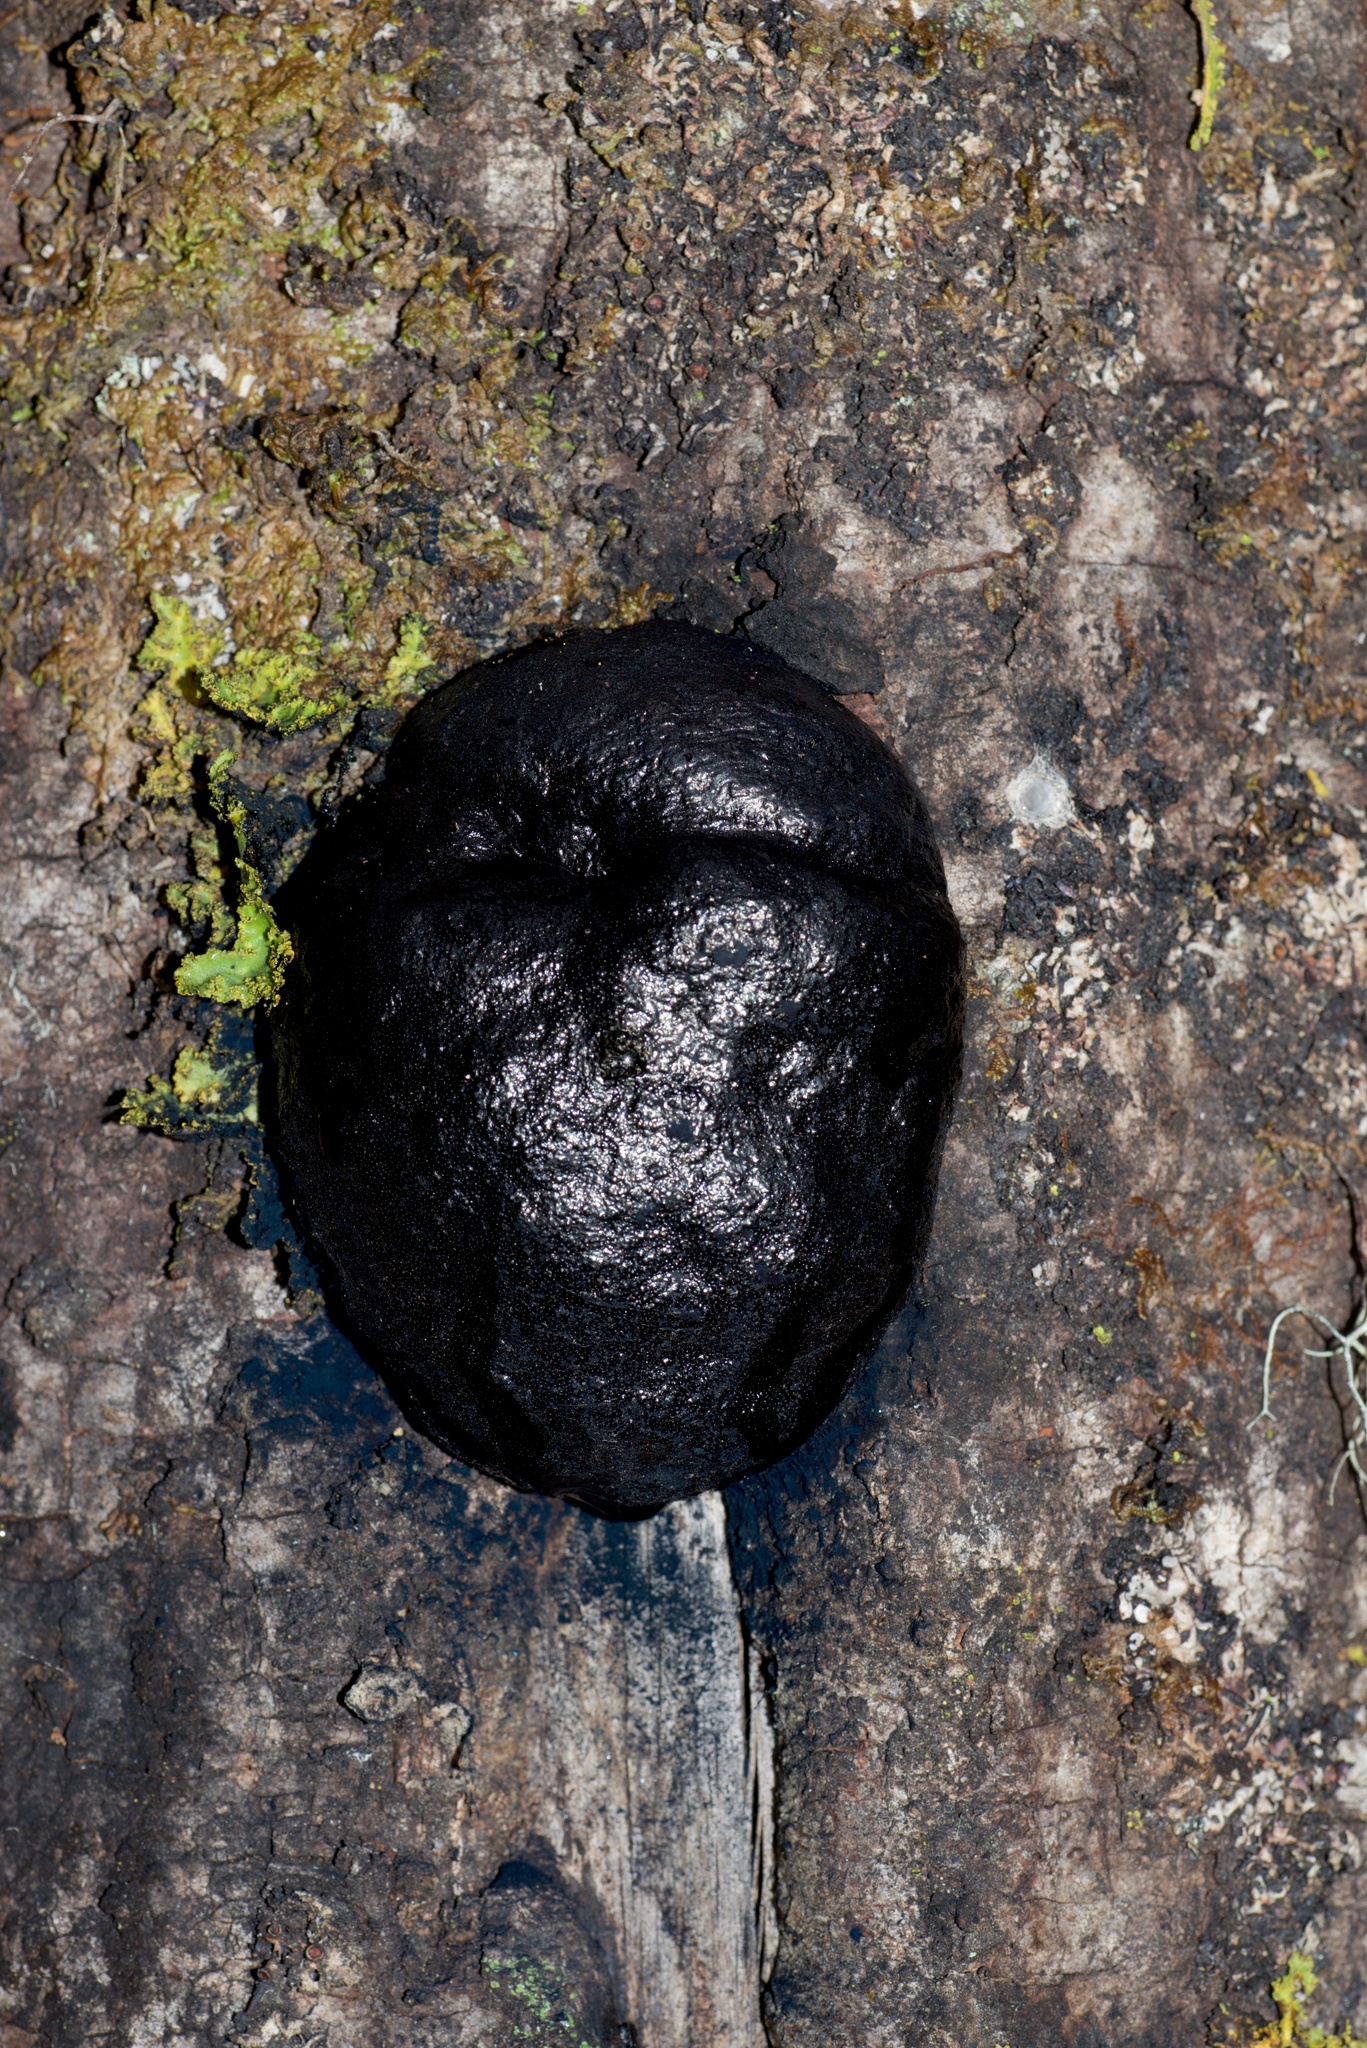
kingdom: Fungi
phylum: Ascomycota
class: Sordariomycetes
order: Xylariales
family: Hypoxylaceae
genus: Daldinia
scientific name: Daldinia
